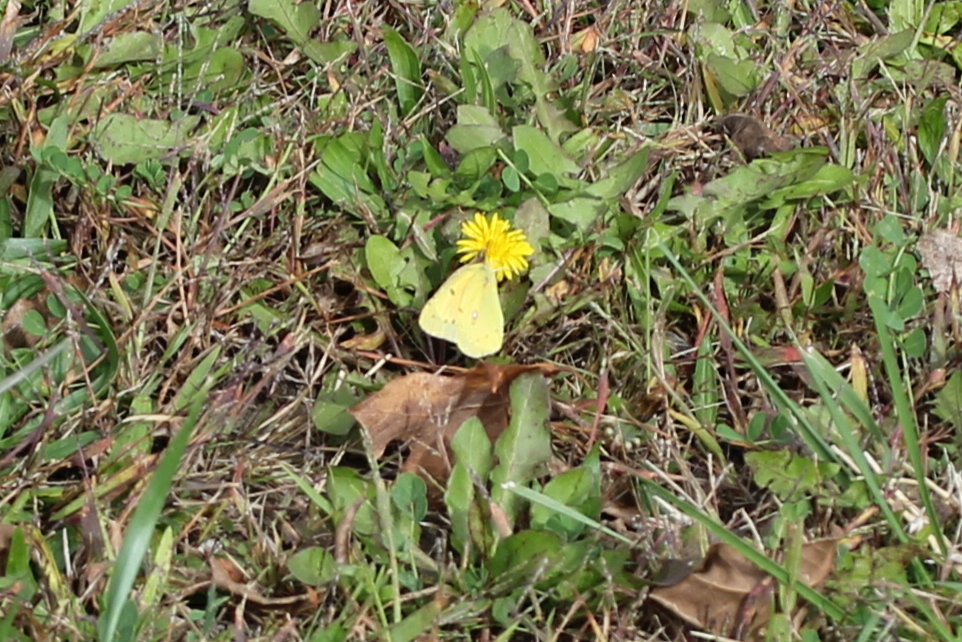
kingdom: Animalia
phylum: Arthropoda
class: Insecta
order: Lepidoptera
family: Pieridae
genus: Colias
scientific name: Colias eurytheme
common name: Alfalfa butterfly
